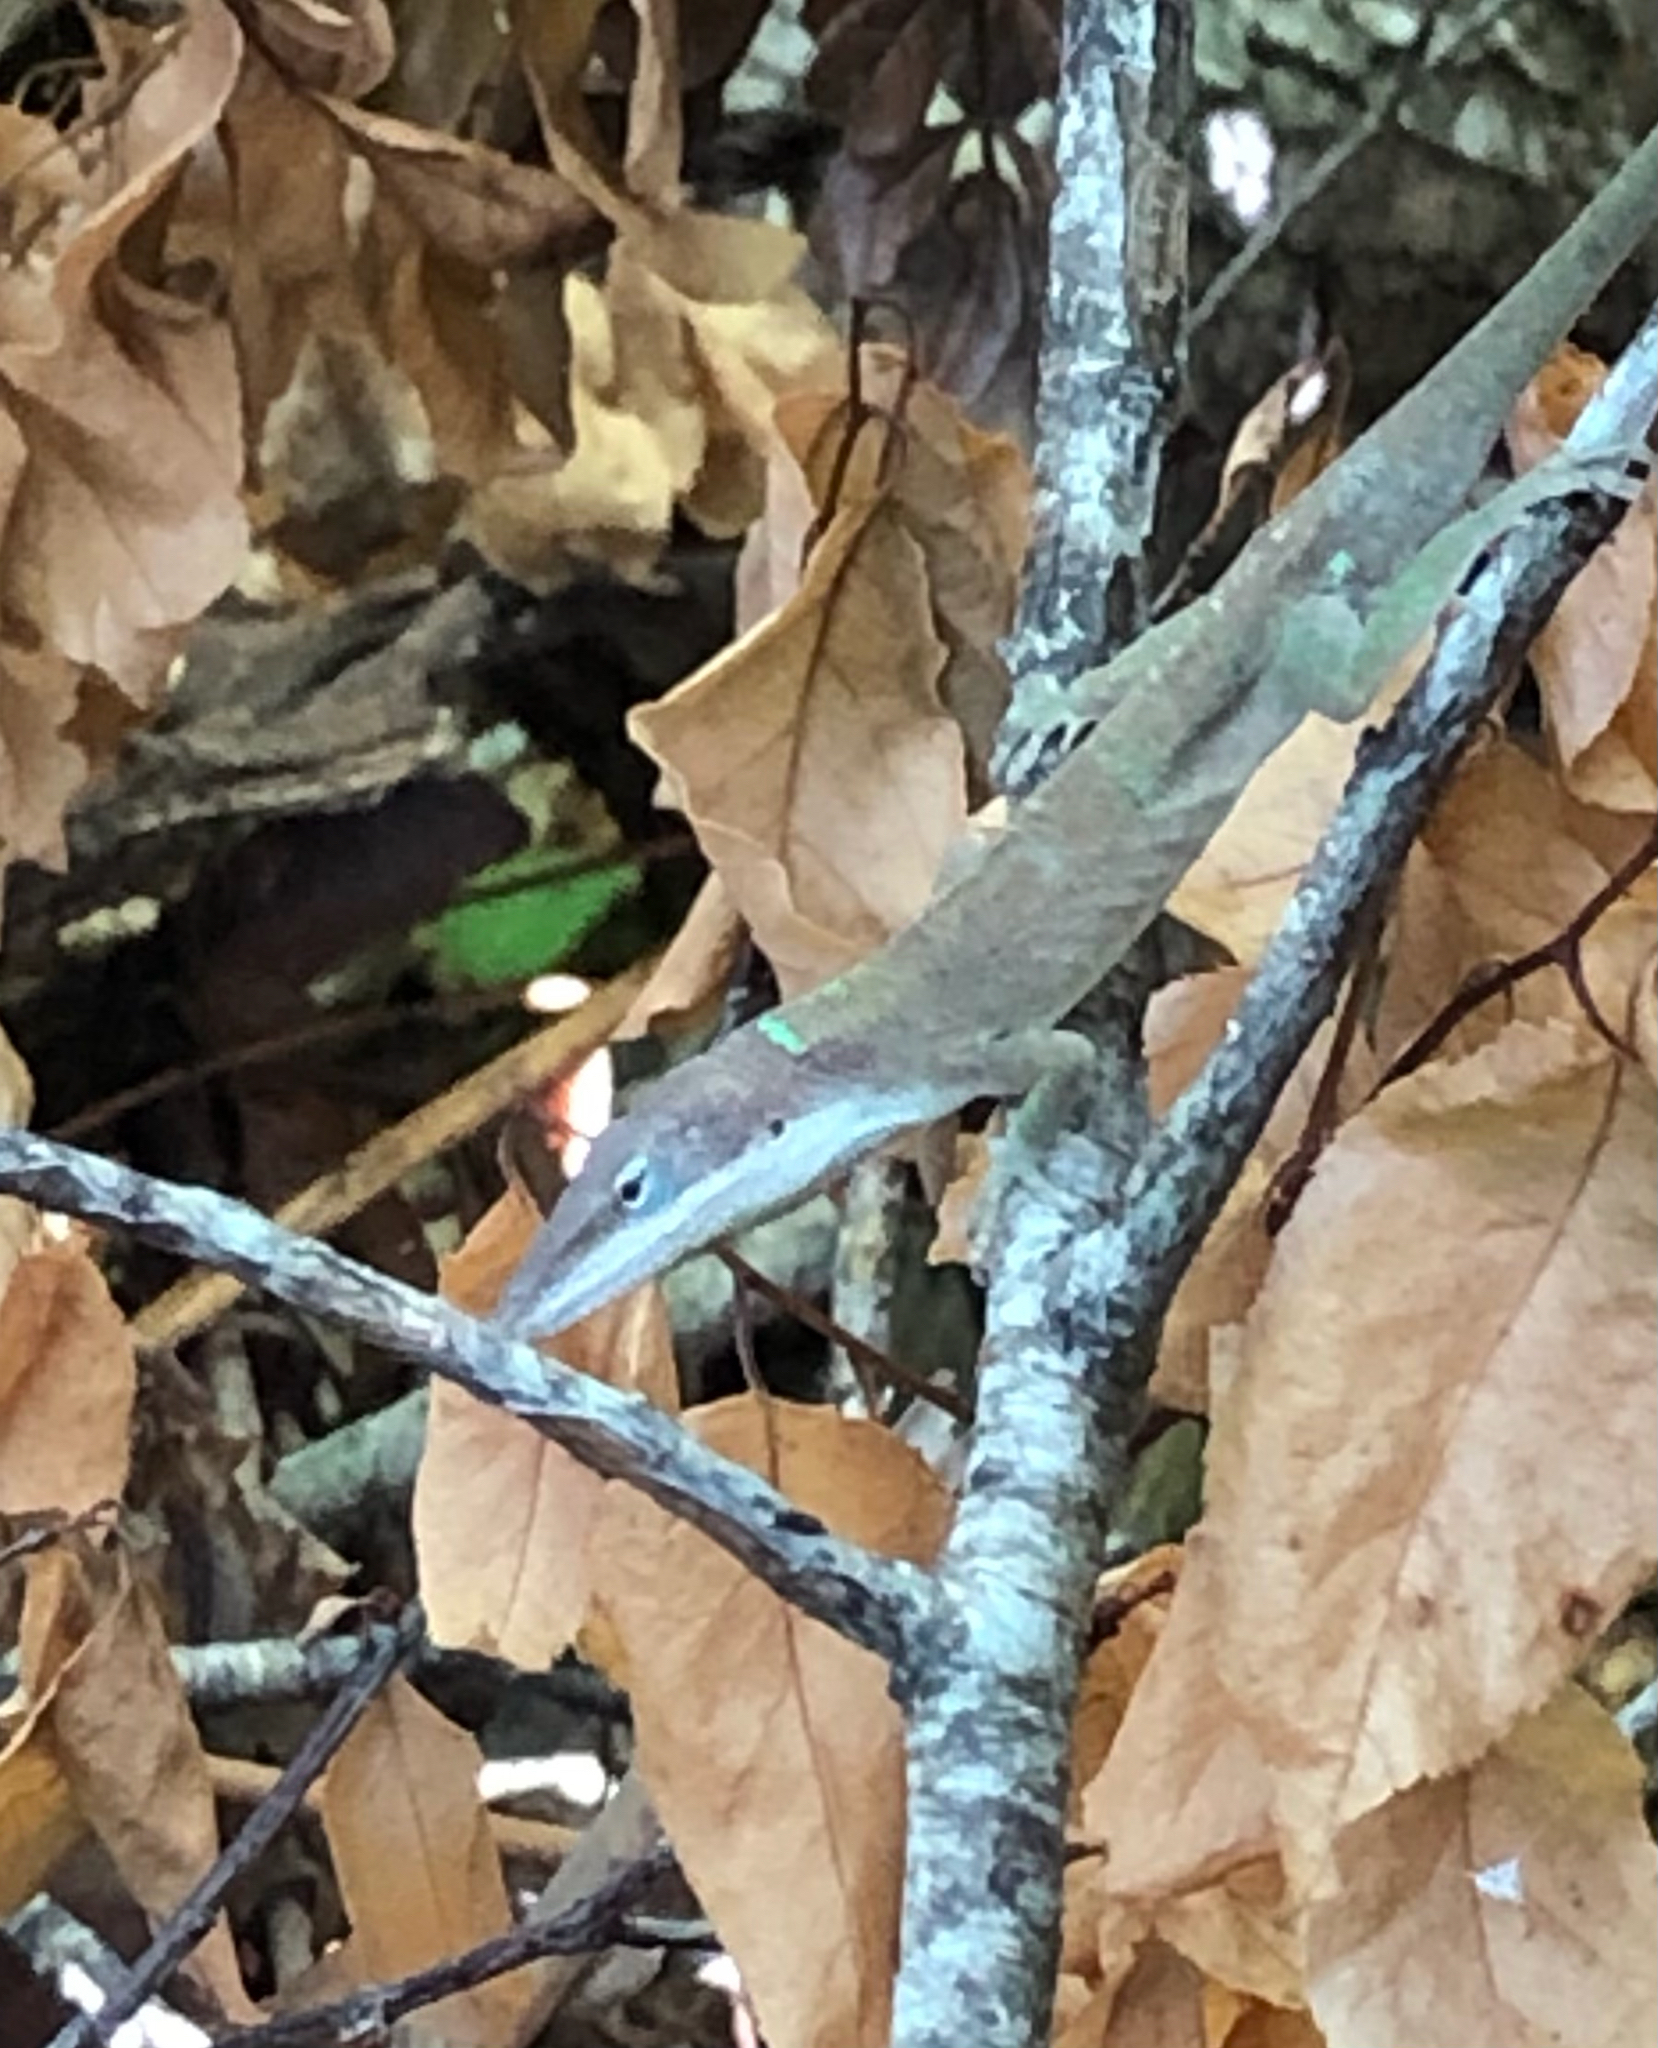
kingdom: Animalia
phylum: Chordata
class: Squamata
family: Dactyloidae
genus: Anolis
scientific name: Anolis carolinensis
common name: Green anole
